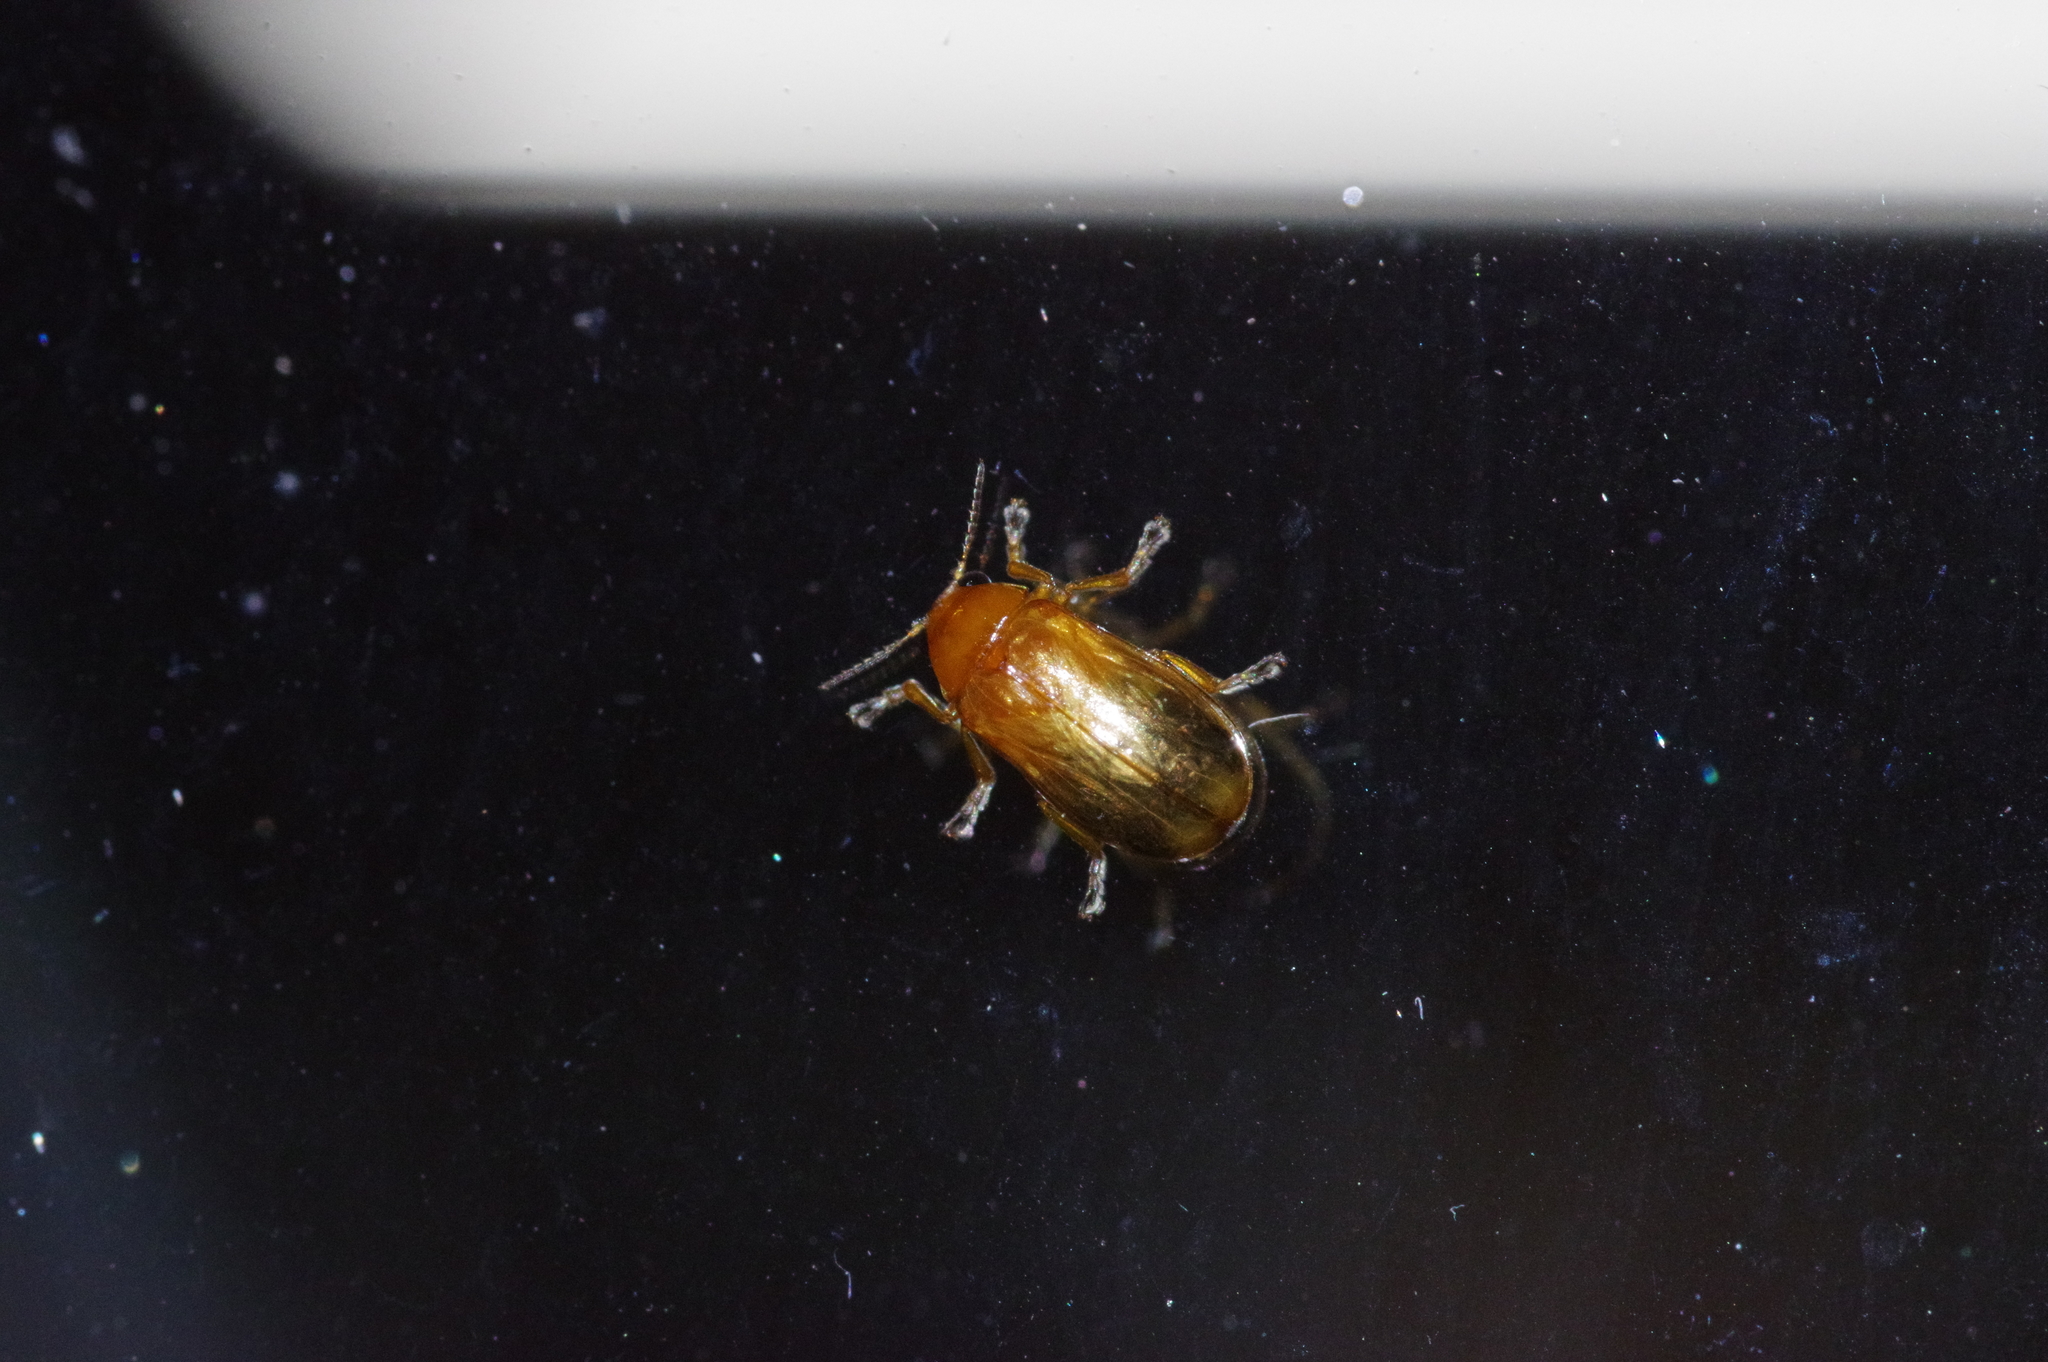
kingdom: Animalia
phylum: Arthropoda
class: Insecta
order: Coleoptera
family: Chrysomelidae
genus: Smaragdina
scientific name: Smaragdina
